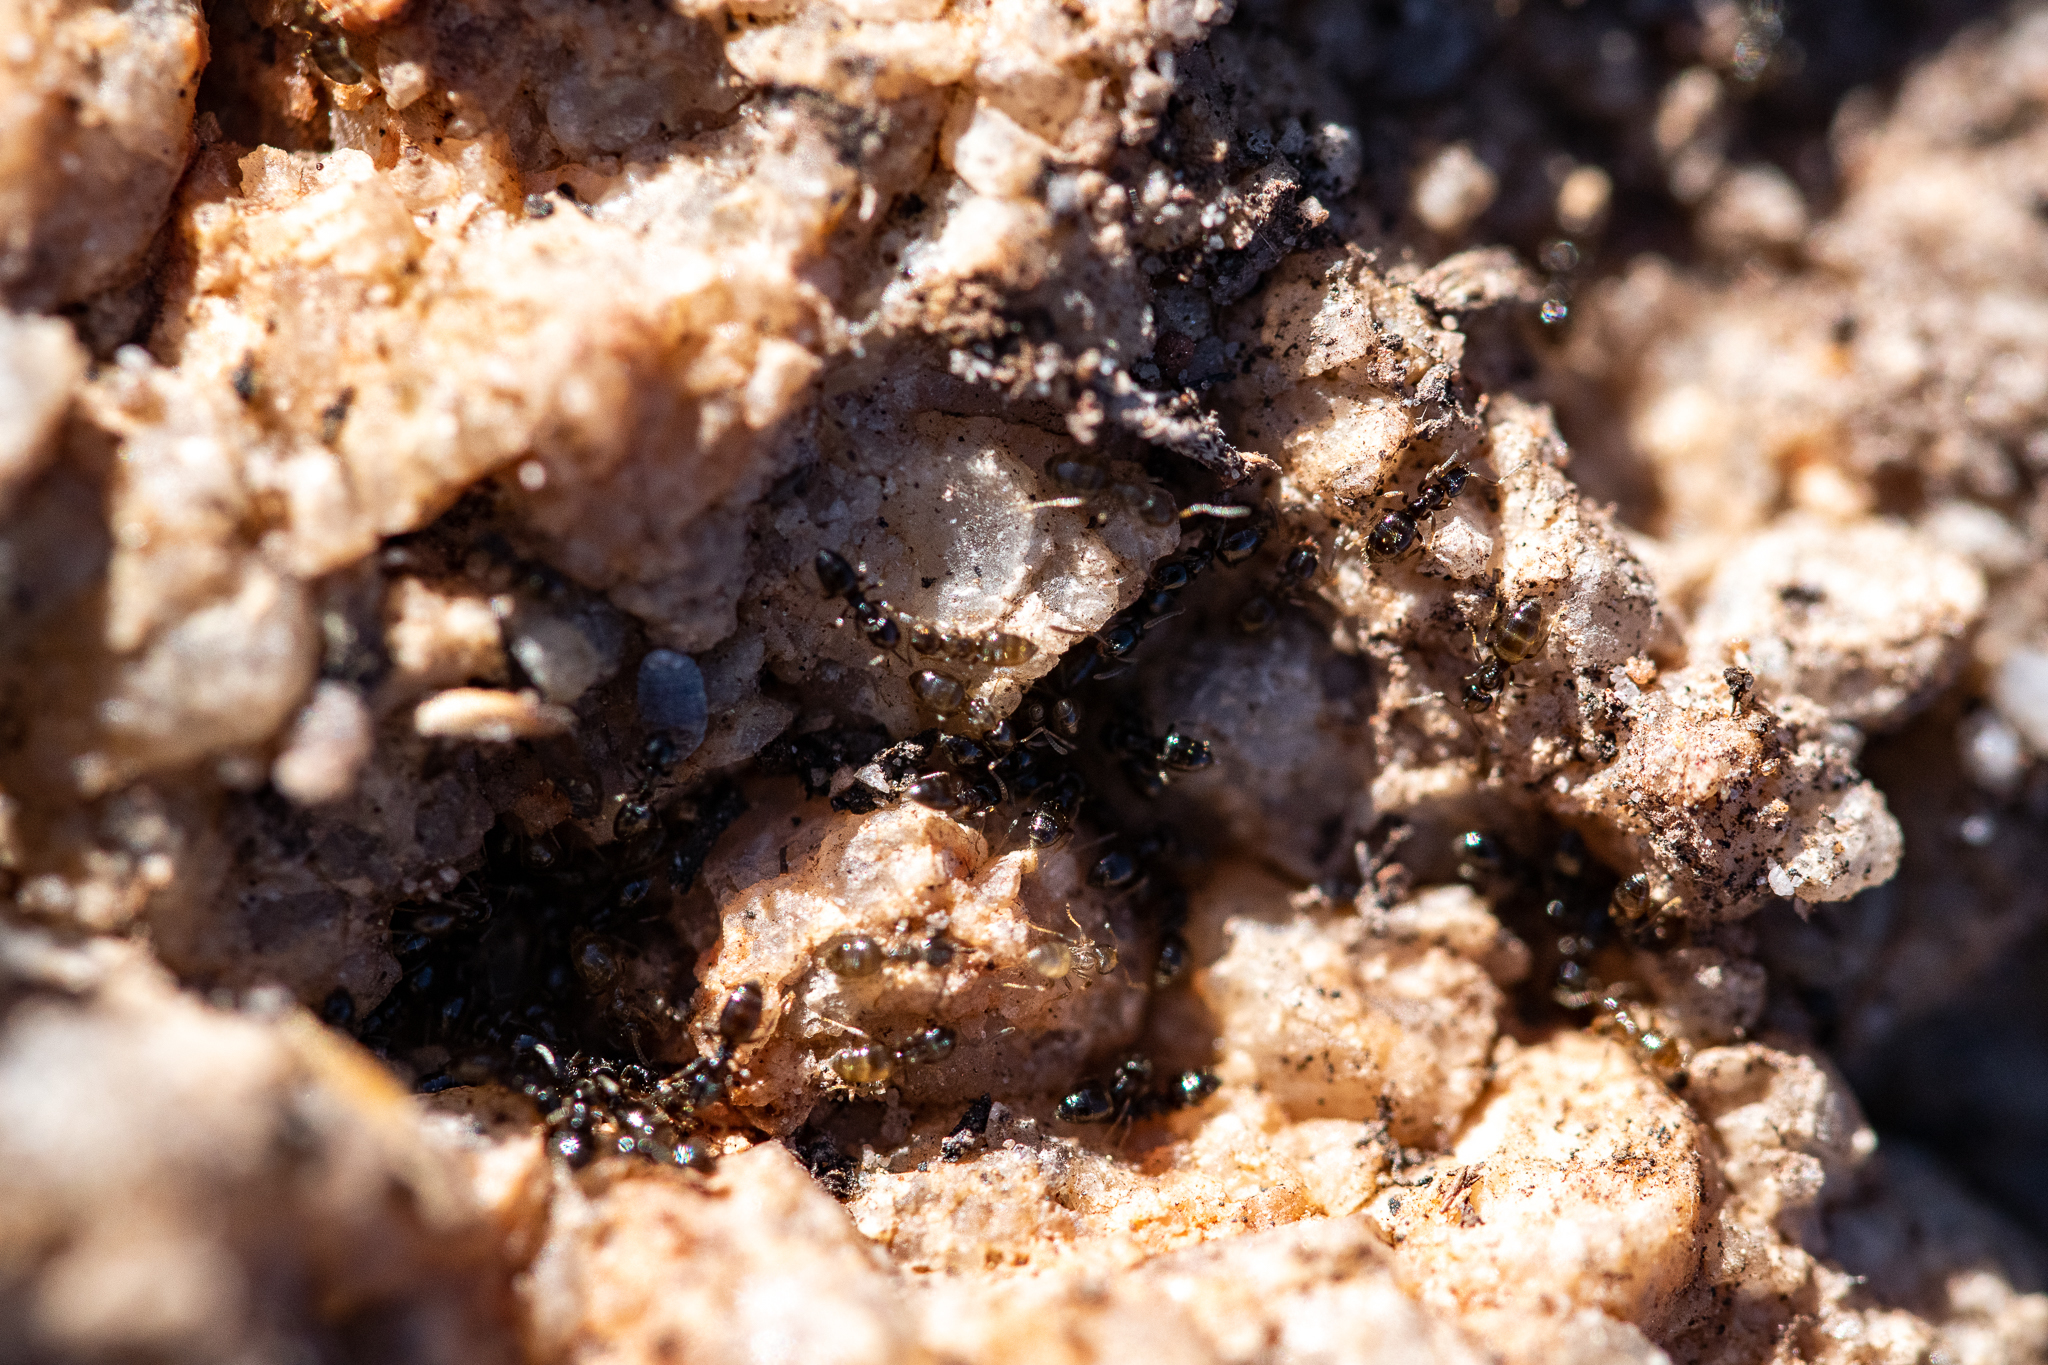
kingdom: Animalia
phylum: Arthropoda
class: Insecta
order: Hymenoptera
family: Formicidae
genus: Tapinoma
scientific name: Tapinoma pallipes
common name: Ant
